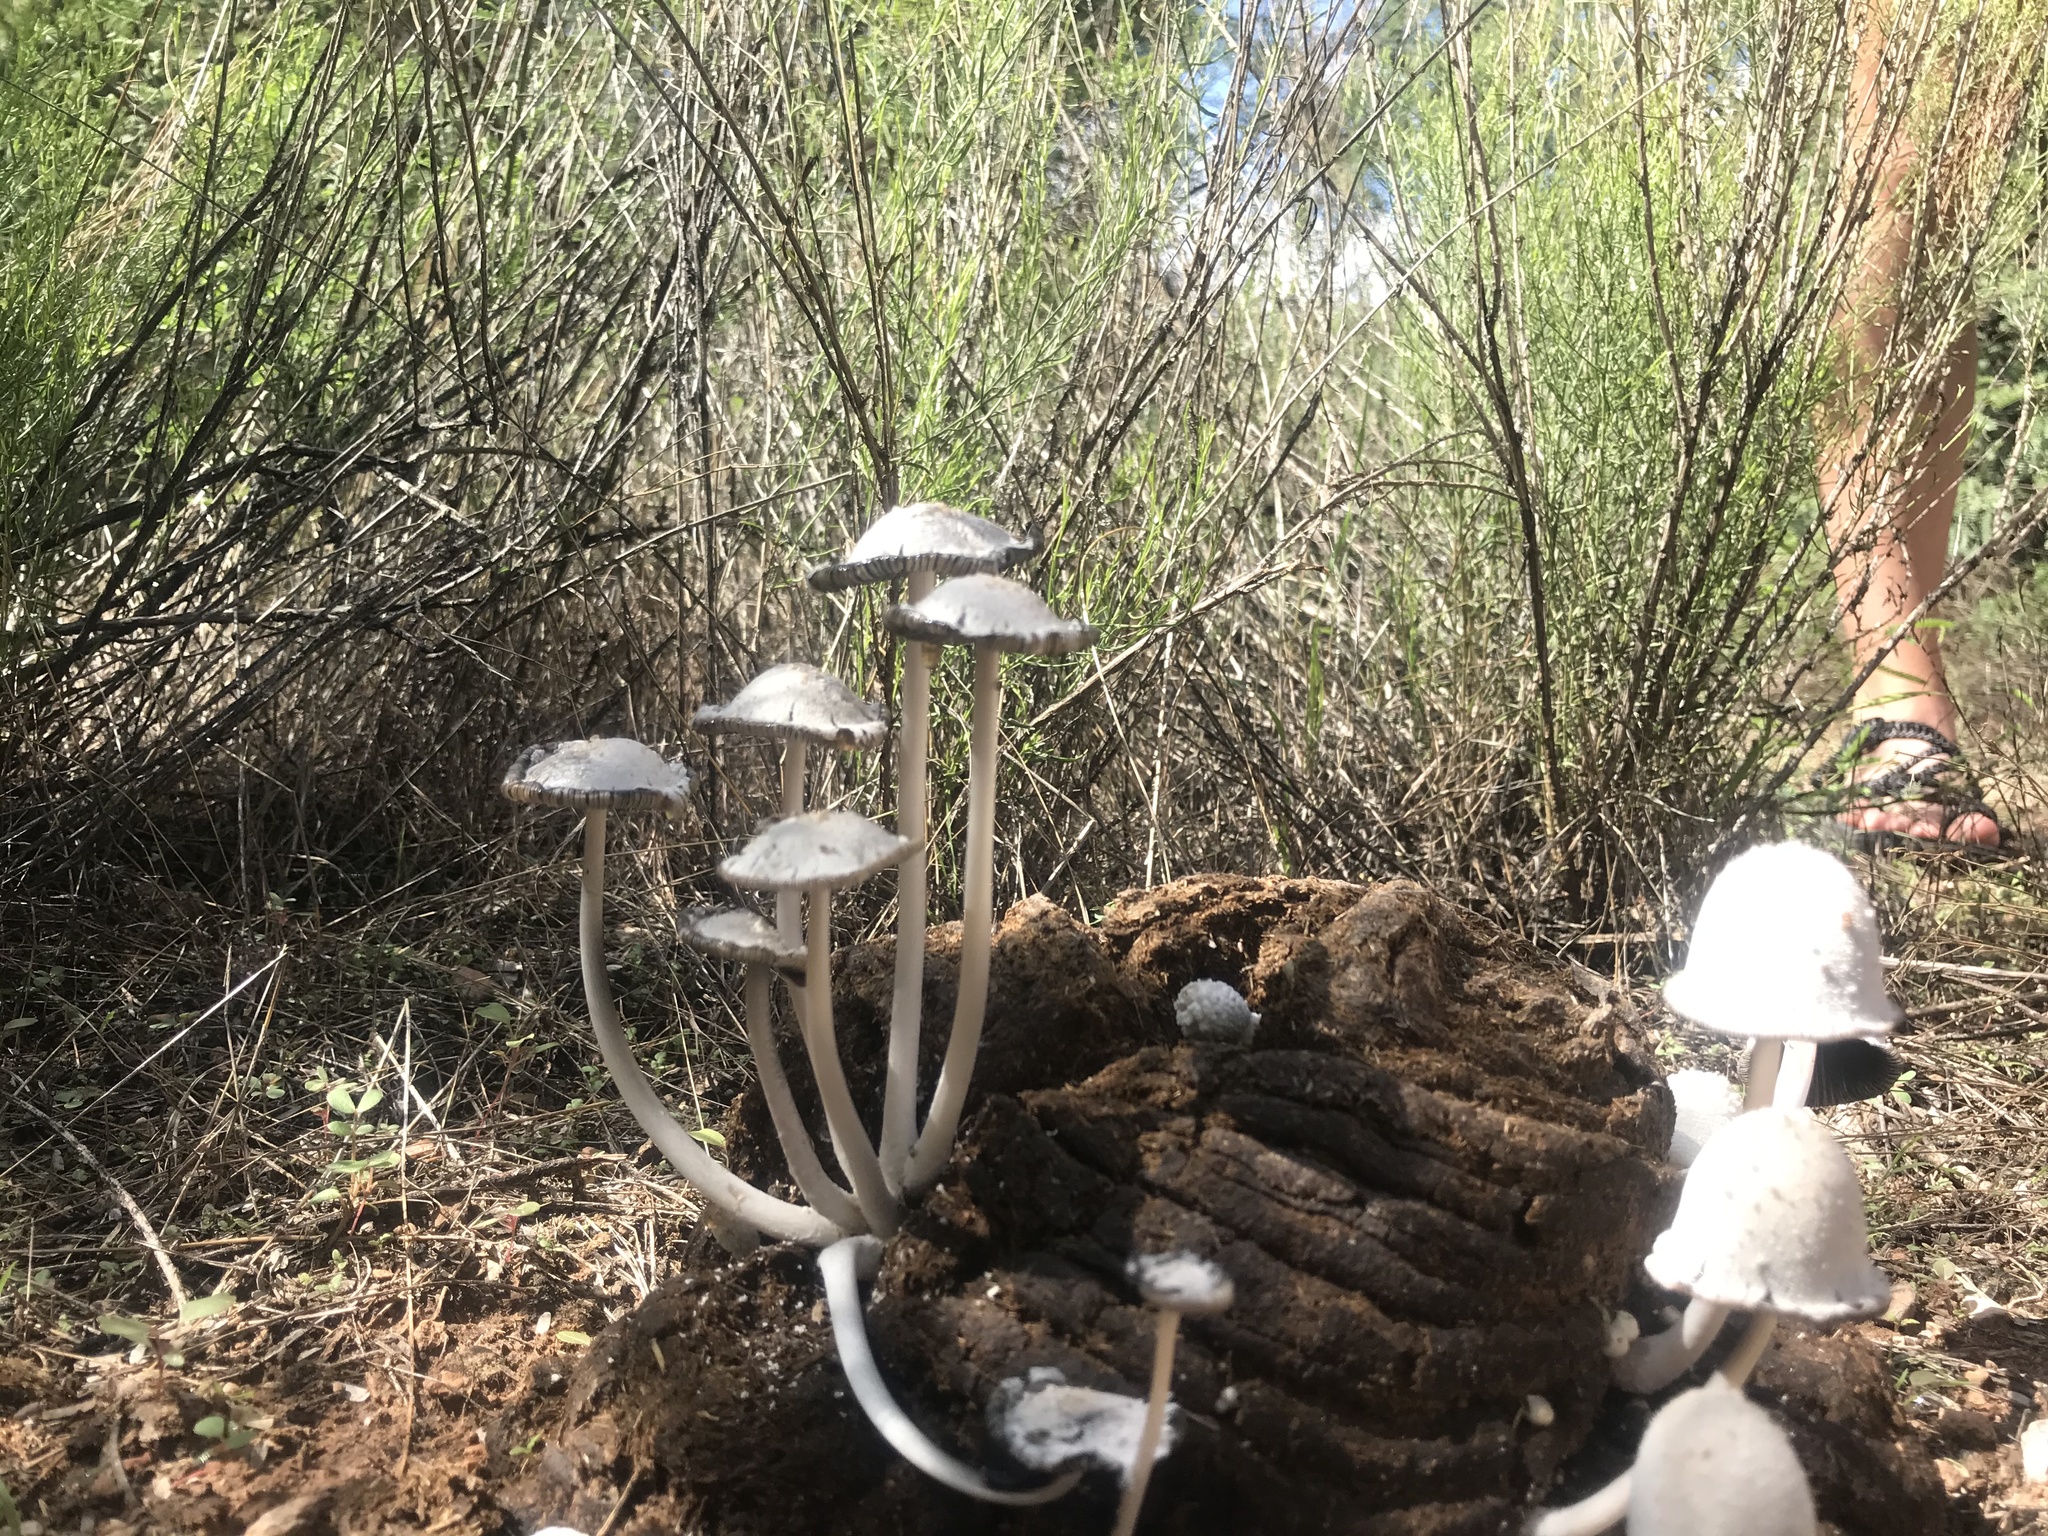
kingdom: Fungi
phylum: Basidiomycota
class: Agaricomycetes
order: Agaricales
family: Psathyrellaceae
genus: Coprinopsis
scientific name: Coprinopsis nivea
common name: Snowy inkcap
